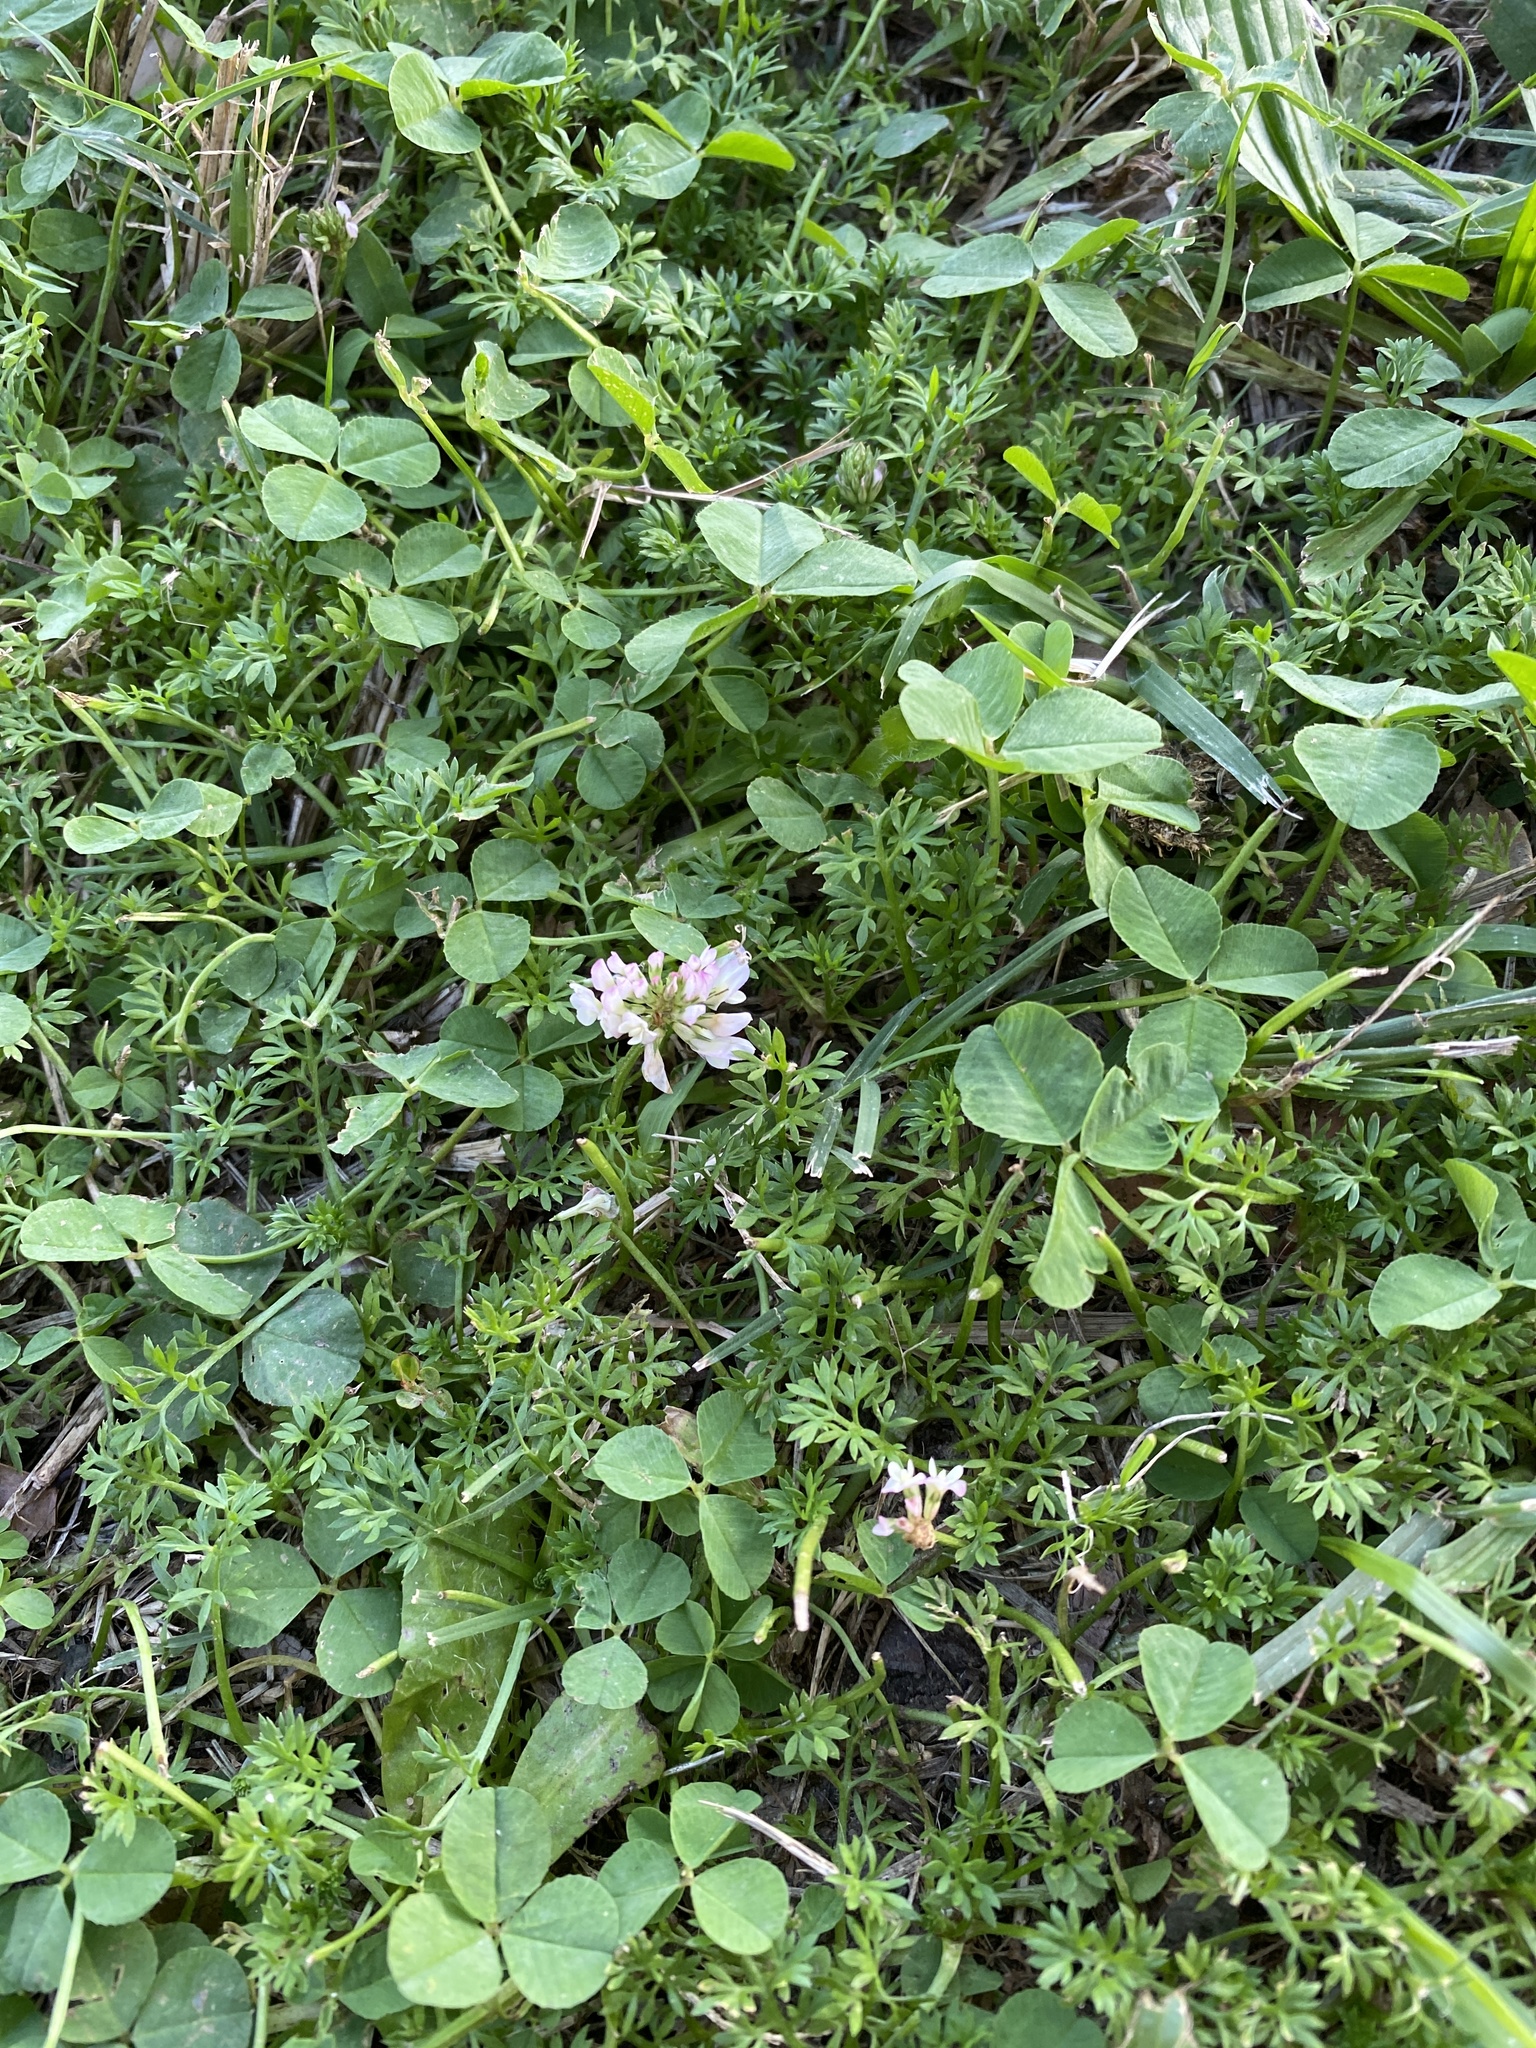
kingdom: Plantae
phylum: Tracheophyta
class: Magnoliopsida
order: Fabales
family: Fabaceae
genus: Trifolium
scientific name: Trifolium repens
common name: White clover
